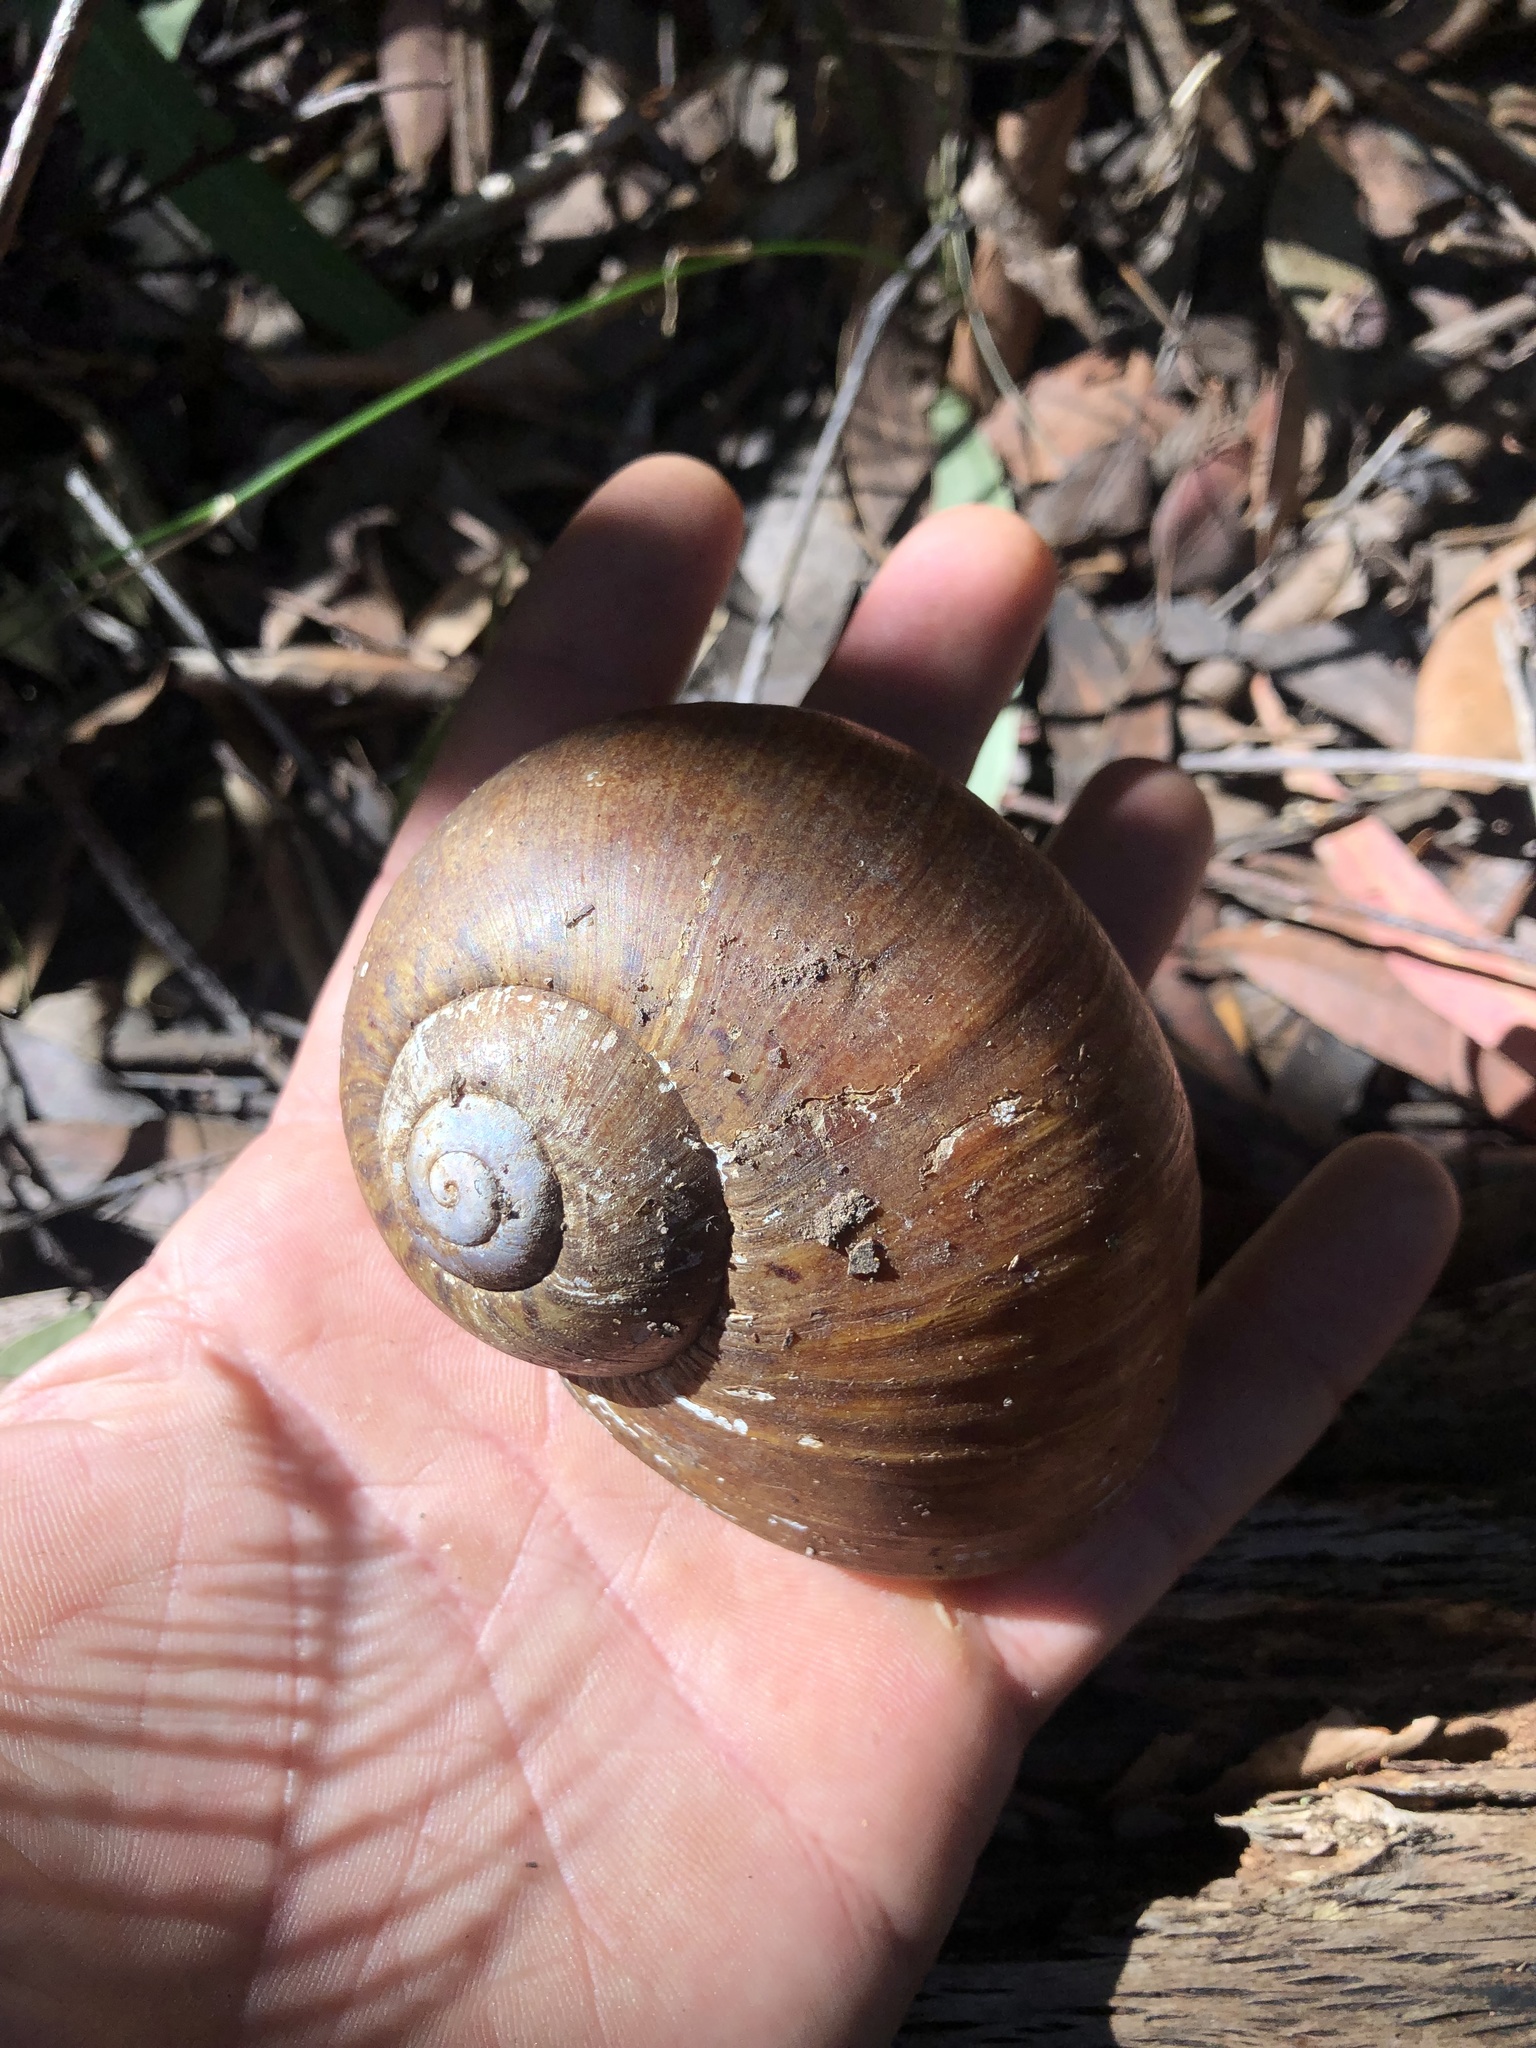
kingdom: Animalia
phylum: Mollusca
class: Gastropoda
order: Stylommatophora
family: Caryodidae
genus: Hedleyella
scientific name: Hedleyella falconeri
